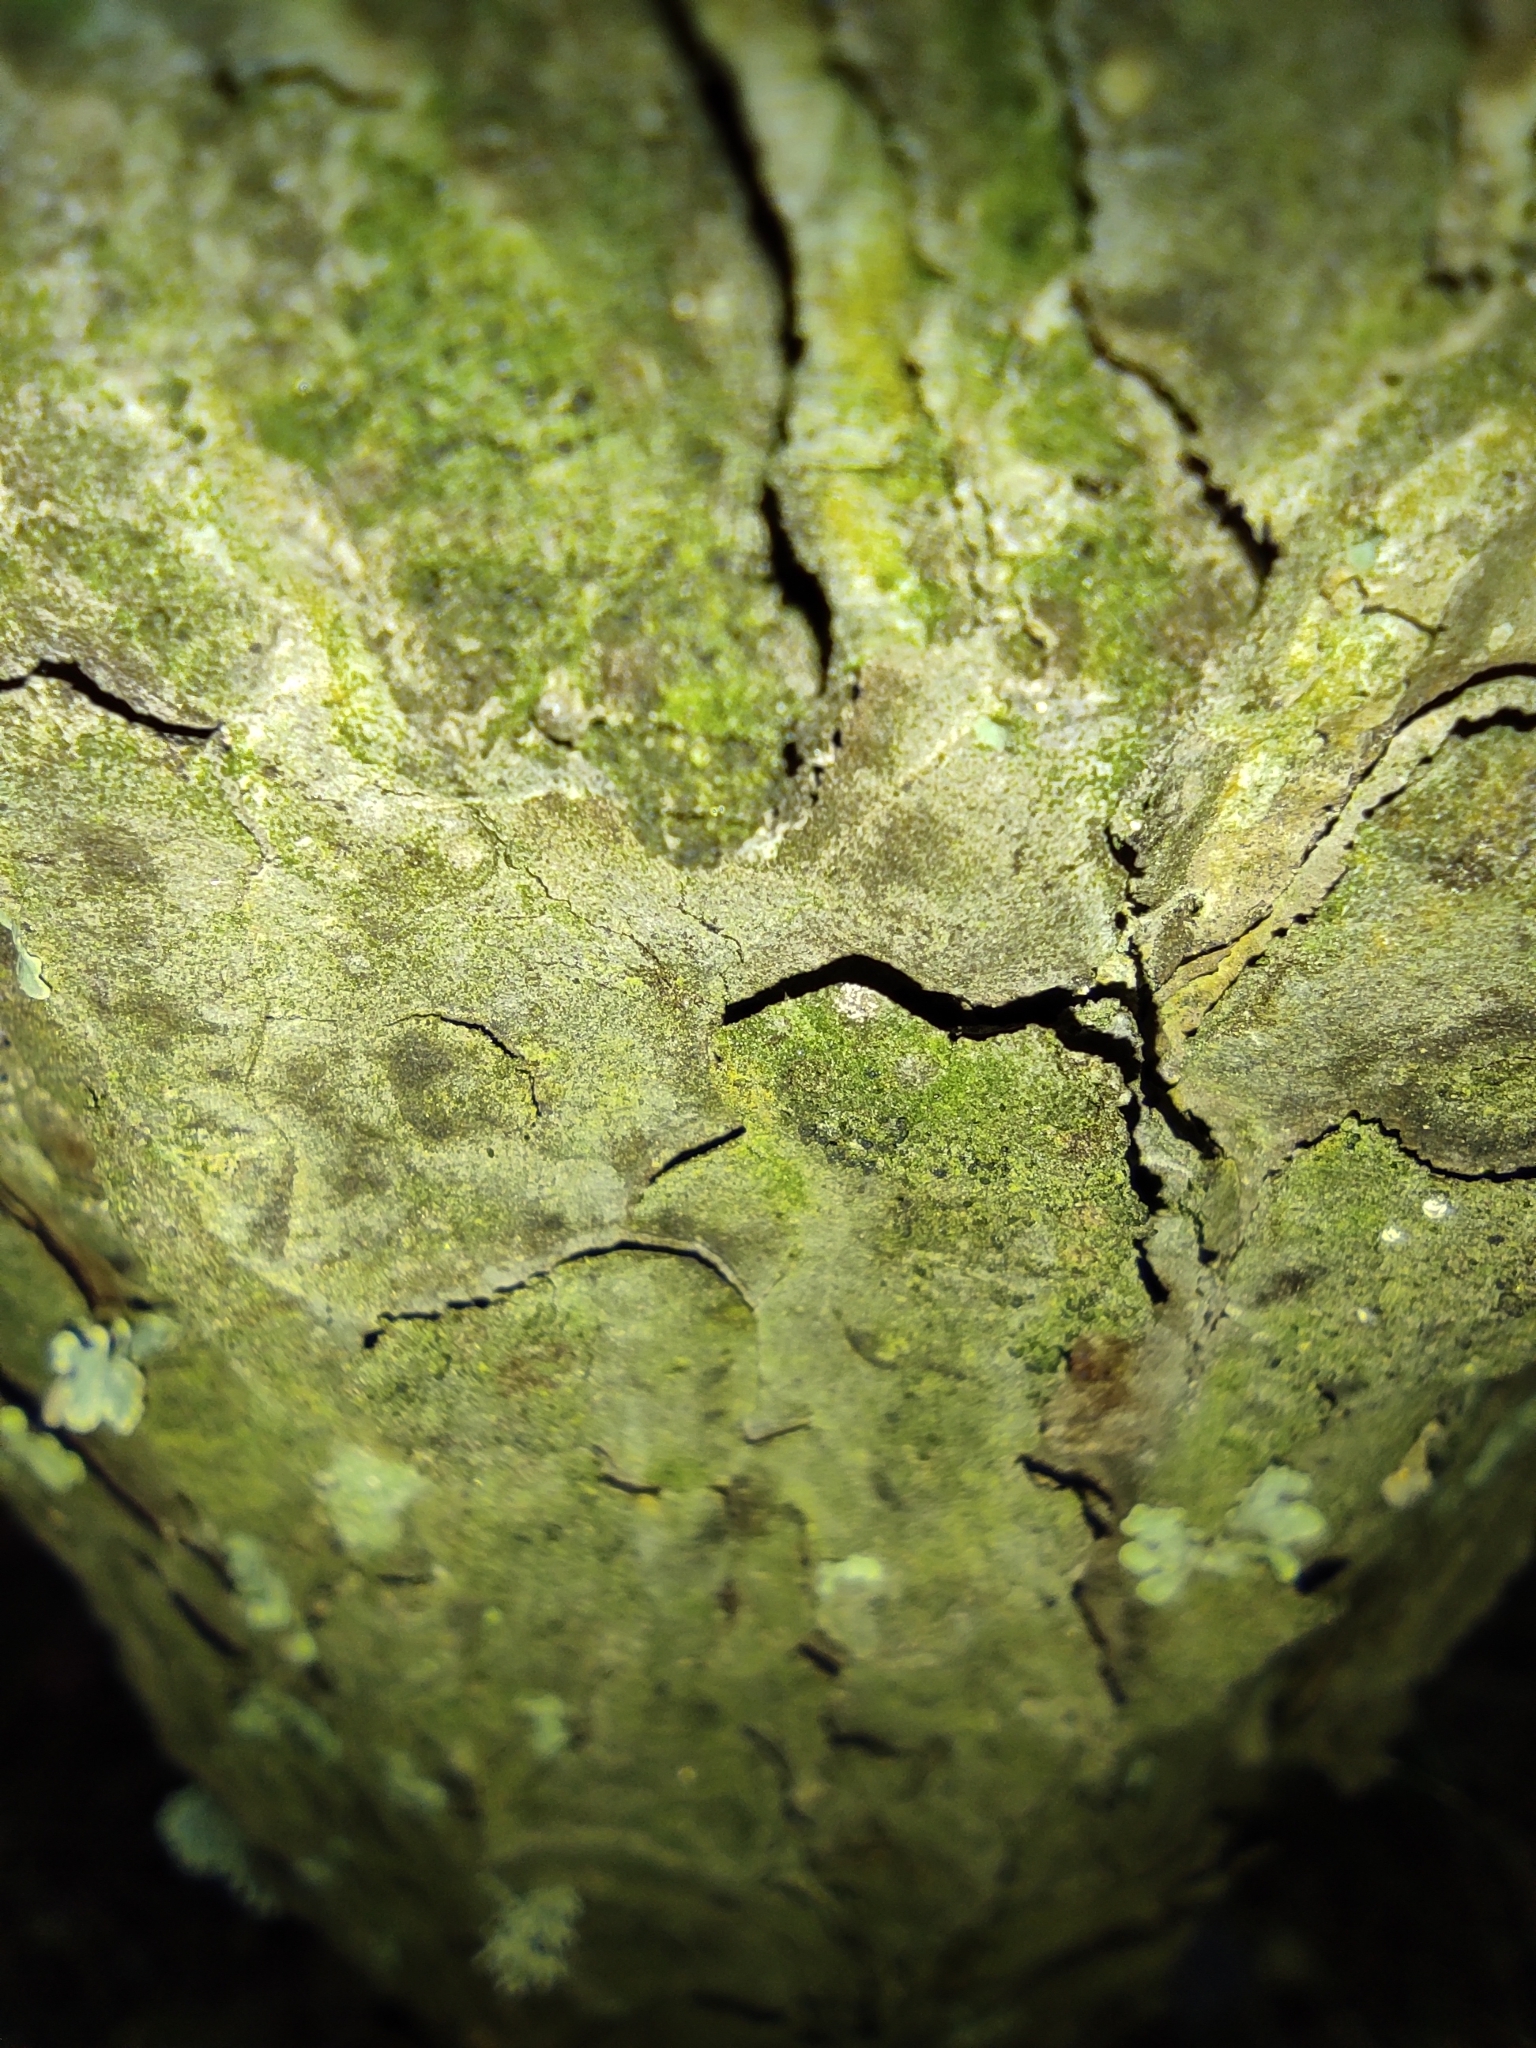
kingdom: Plantae
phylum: Tracheophyta
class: Pinopsida
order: Pinales
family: Pinaceae
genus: Pinus
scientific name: Pinus sylvestris
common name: Scots pine
